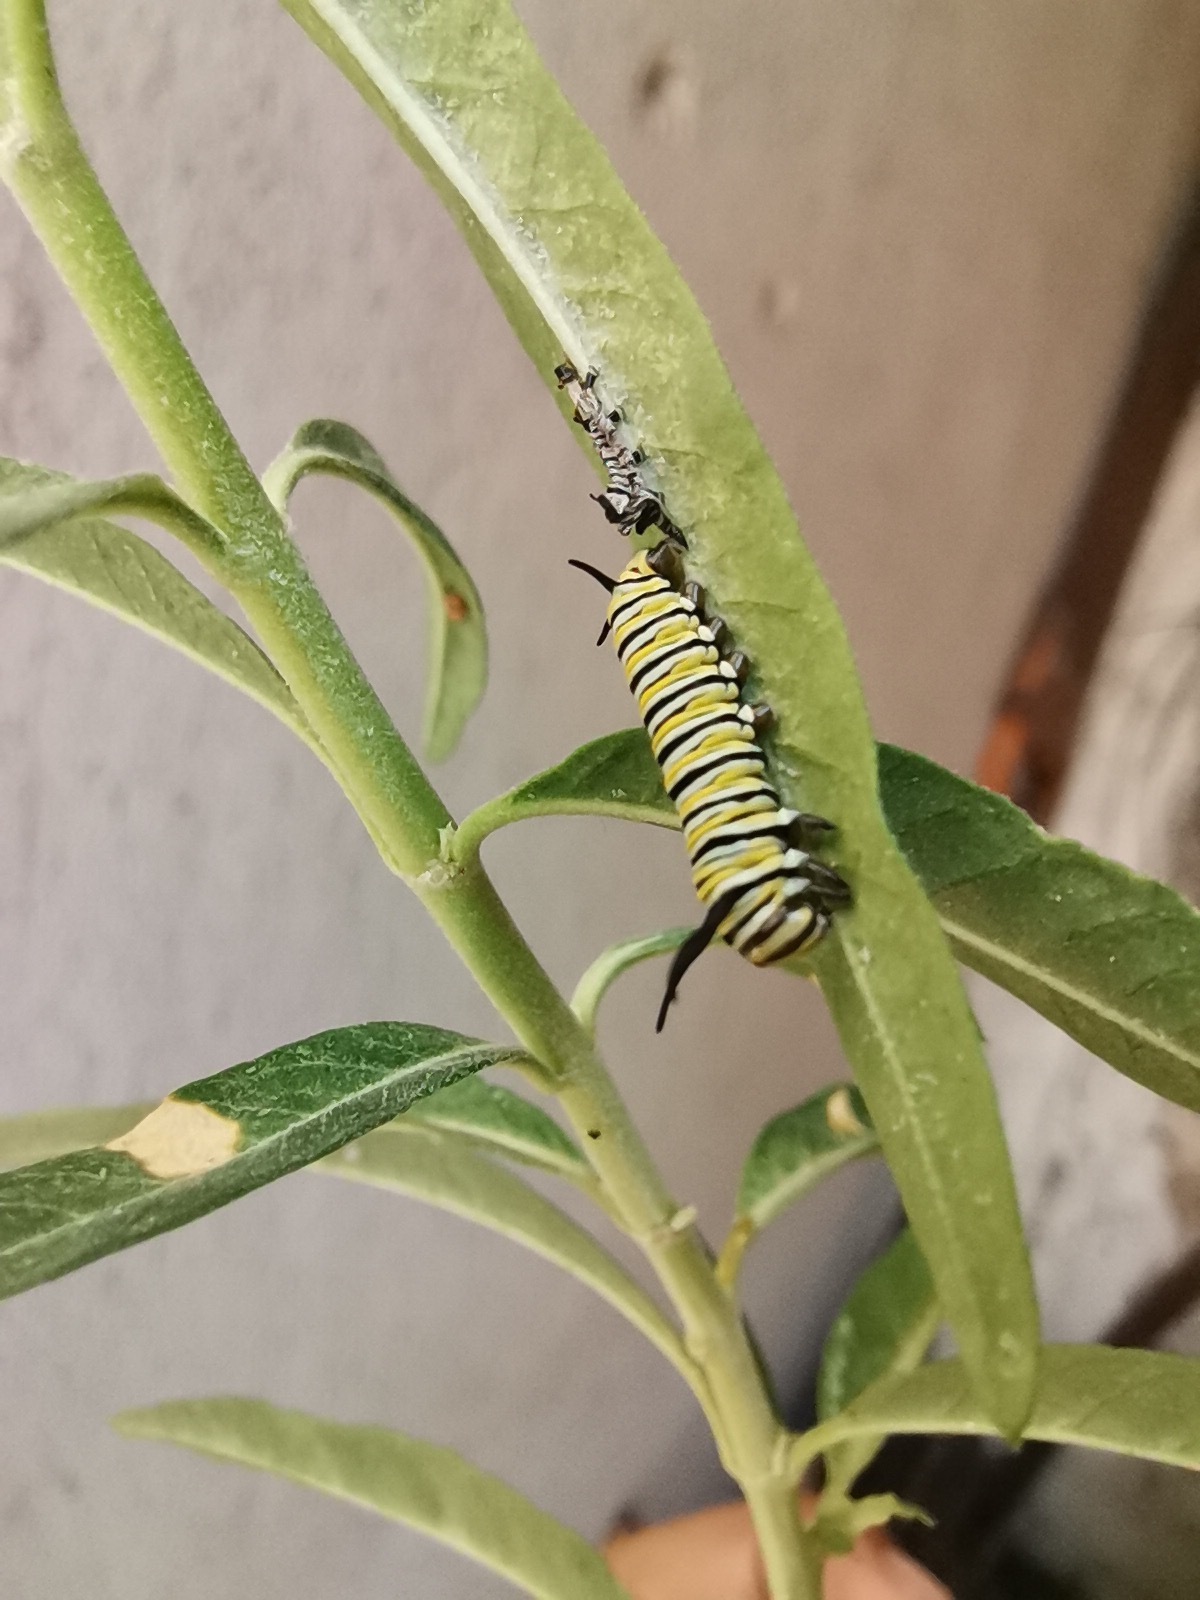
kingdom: Animalia
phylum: Arthropoda
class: Insecta
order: Lepidoptera
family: Nymphalidae
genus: Danaus
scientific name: Danaus plexippus
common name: Monarch
